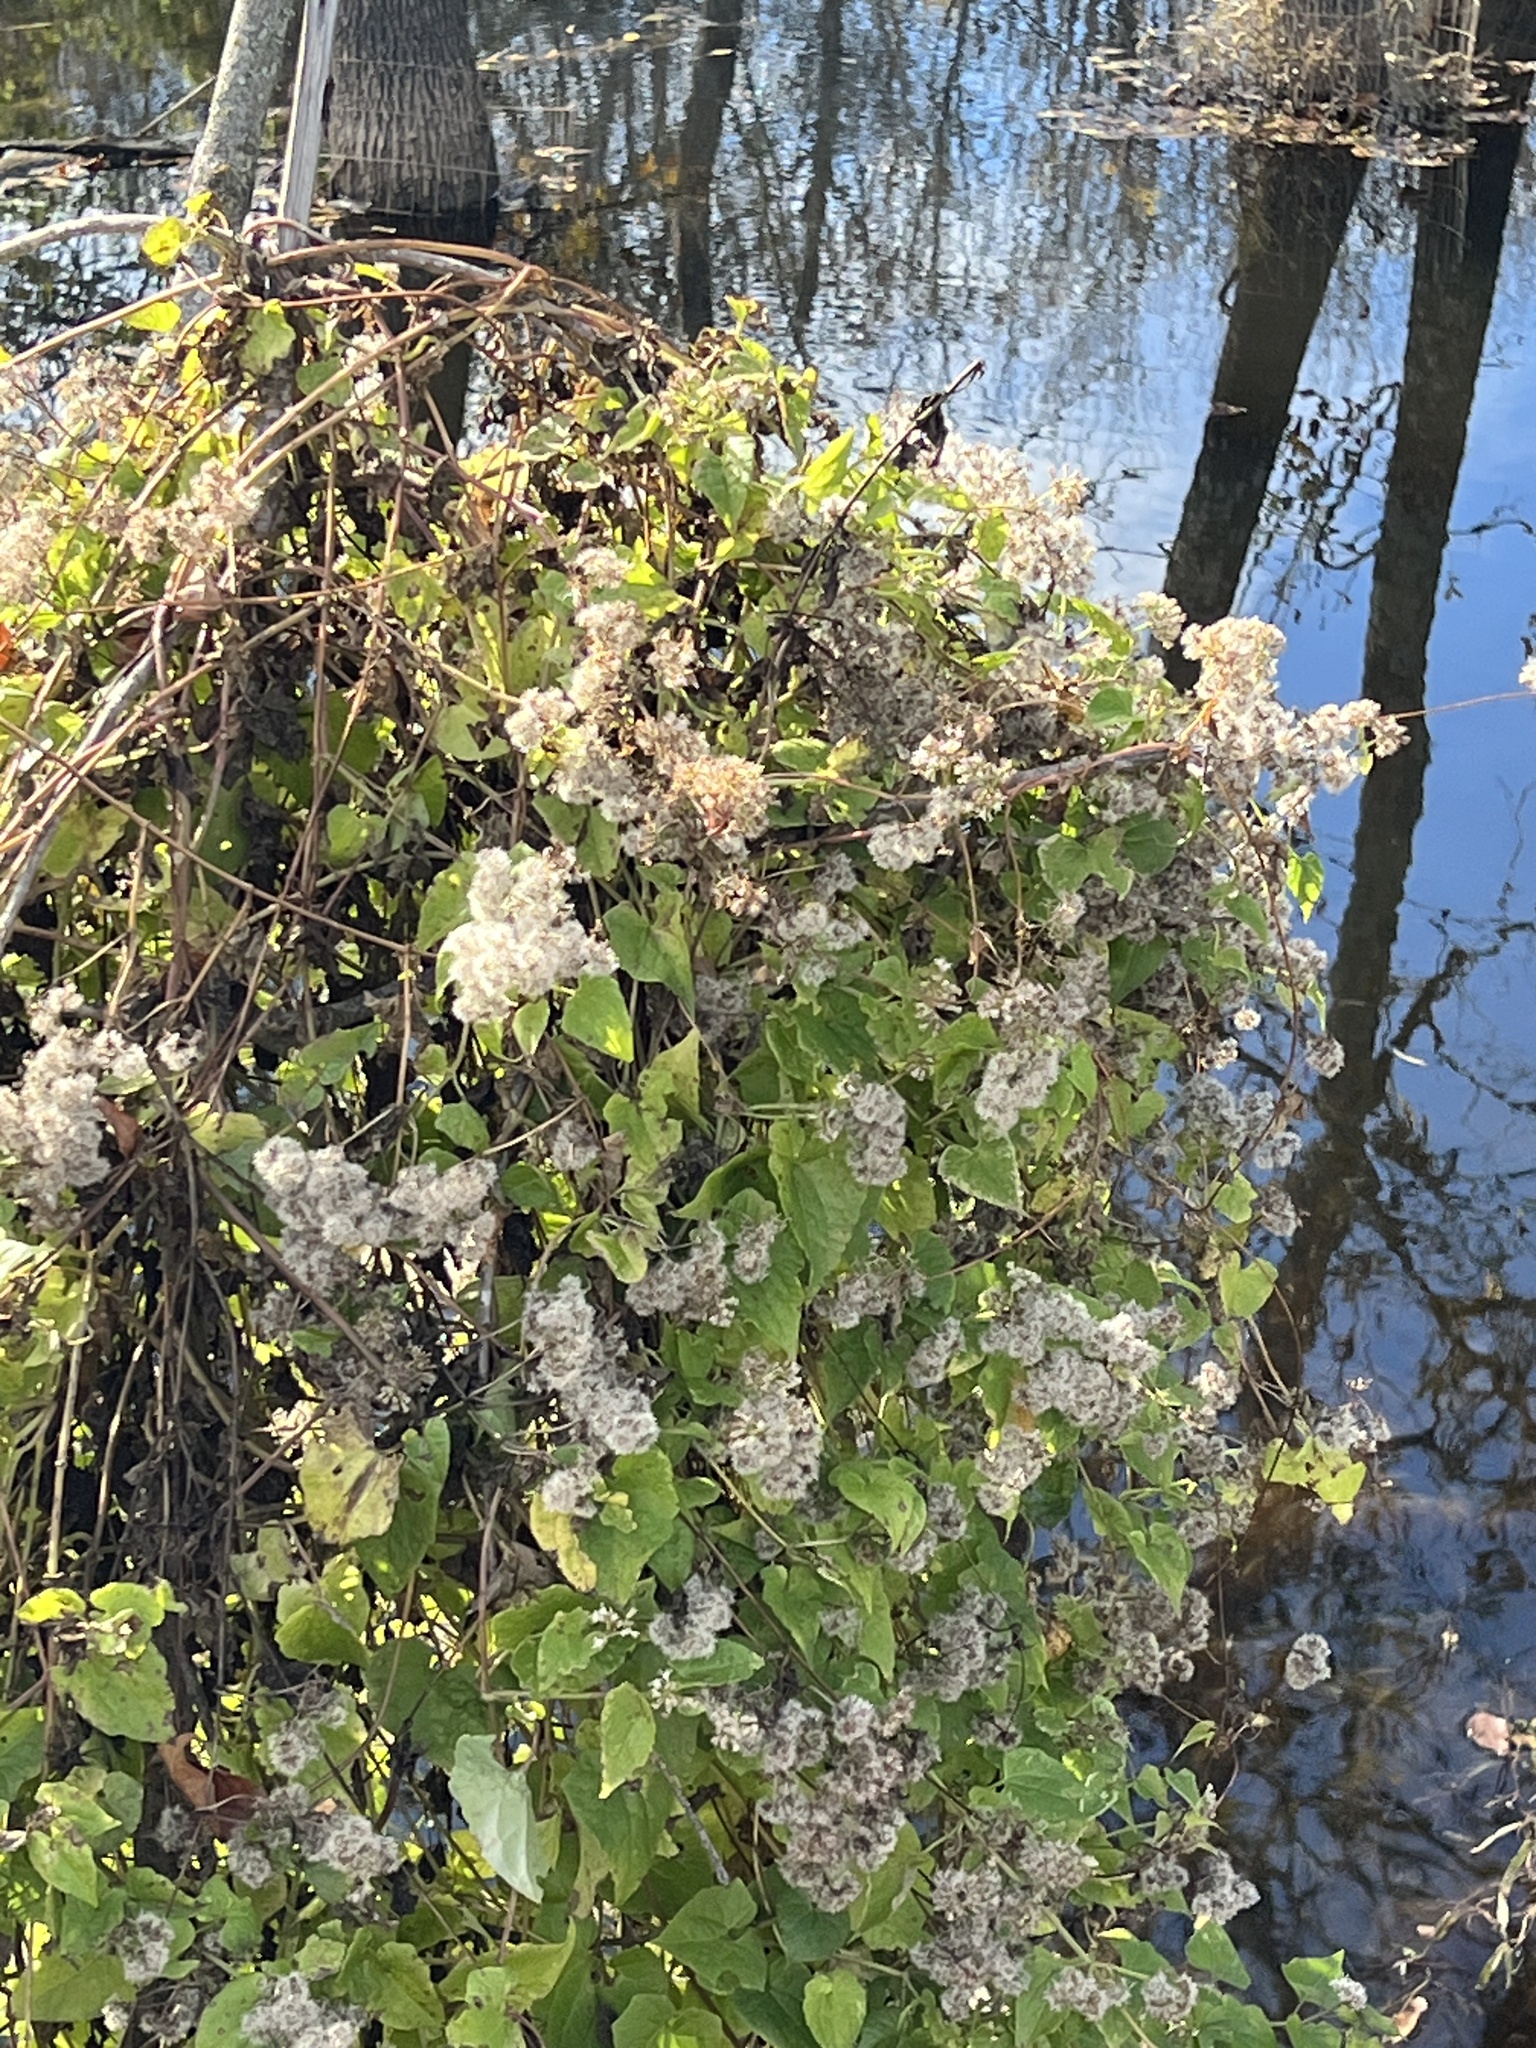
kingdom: Plantae
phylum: Tracheophyta
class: Magnoliopsida
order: Asterales
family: Asteraceae
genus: Mikania
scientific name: Mikania scandens
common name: Climbing hempvine
